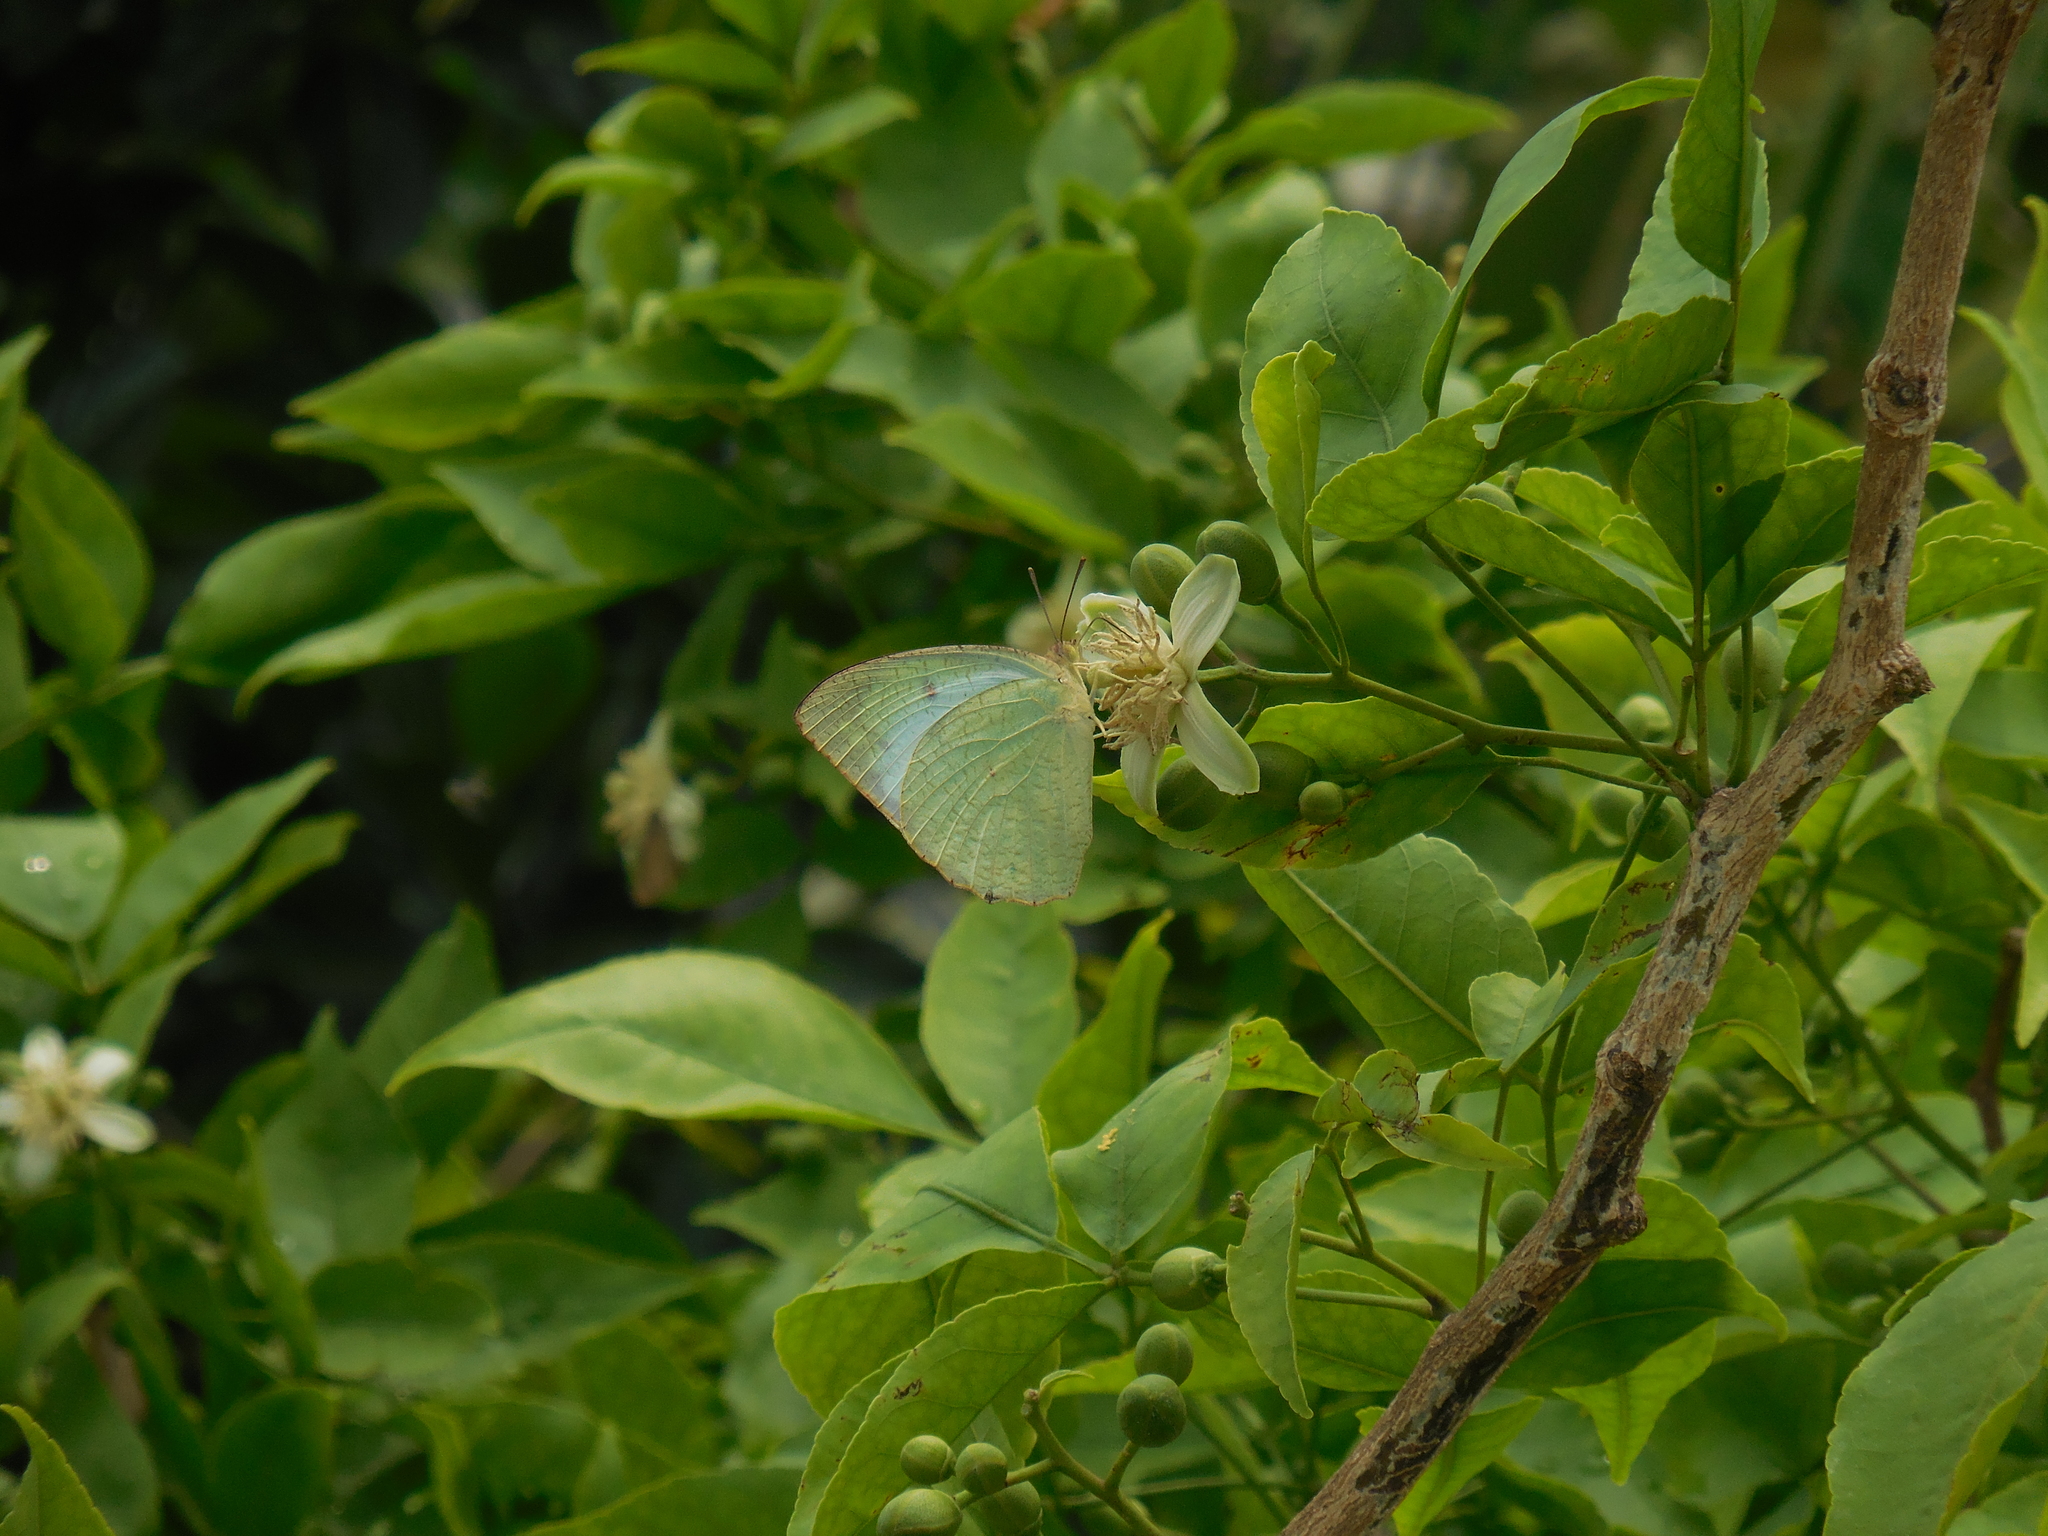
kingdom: Animalia
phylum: Arthropoda
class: Insecta
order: Lepidoptera
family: Pieridae
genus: Catopsilia
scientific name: Catopsilia pyranthe
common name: Mottled emigrant
